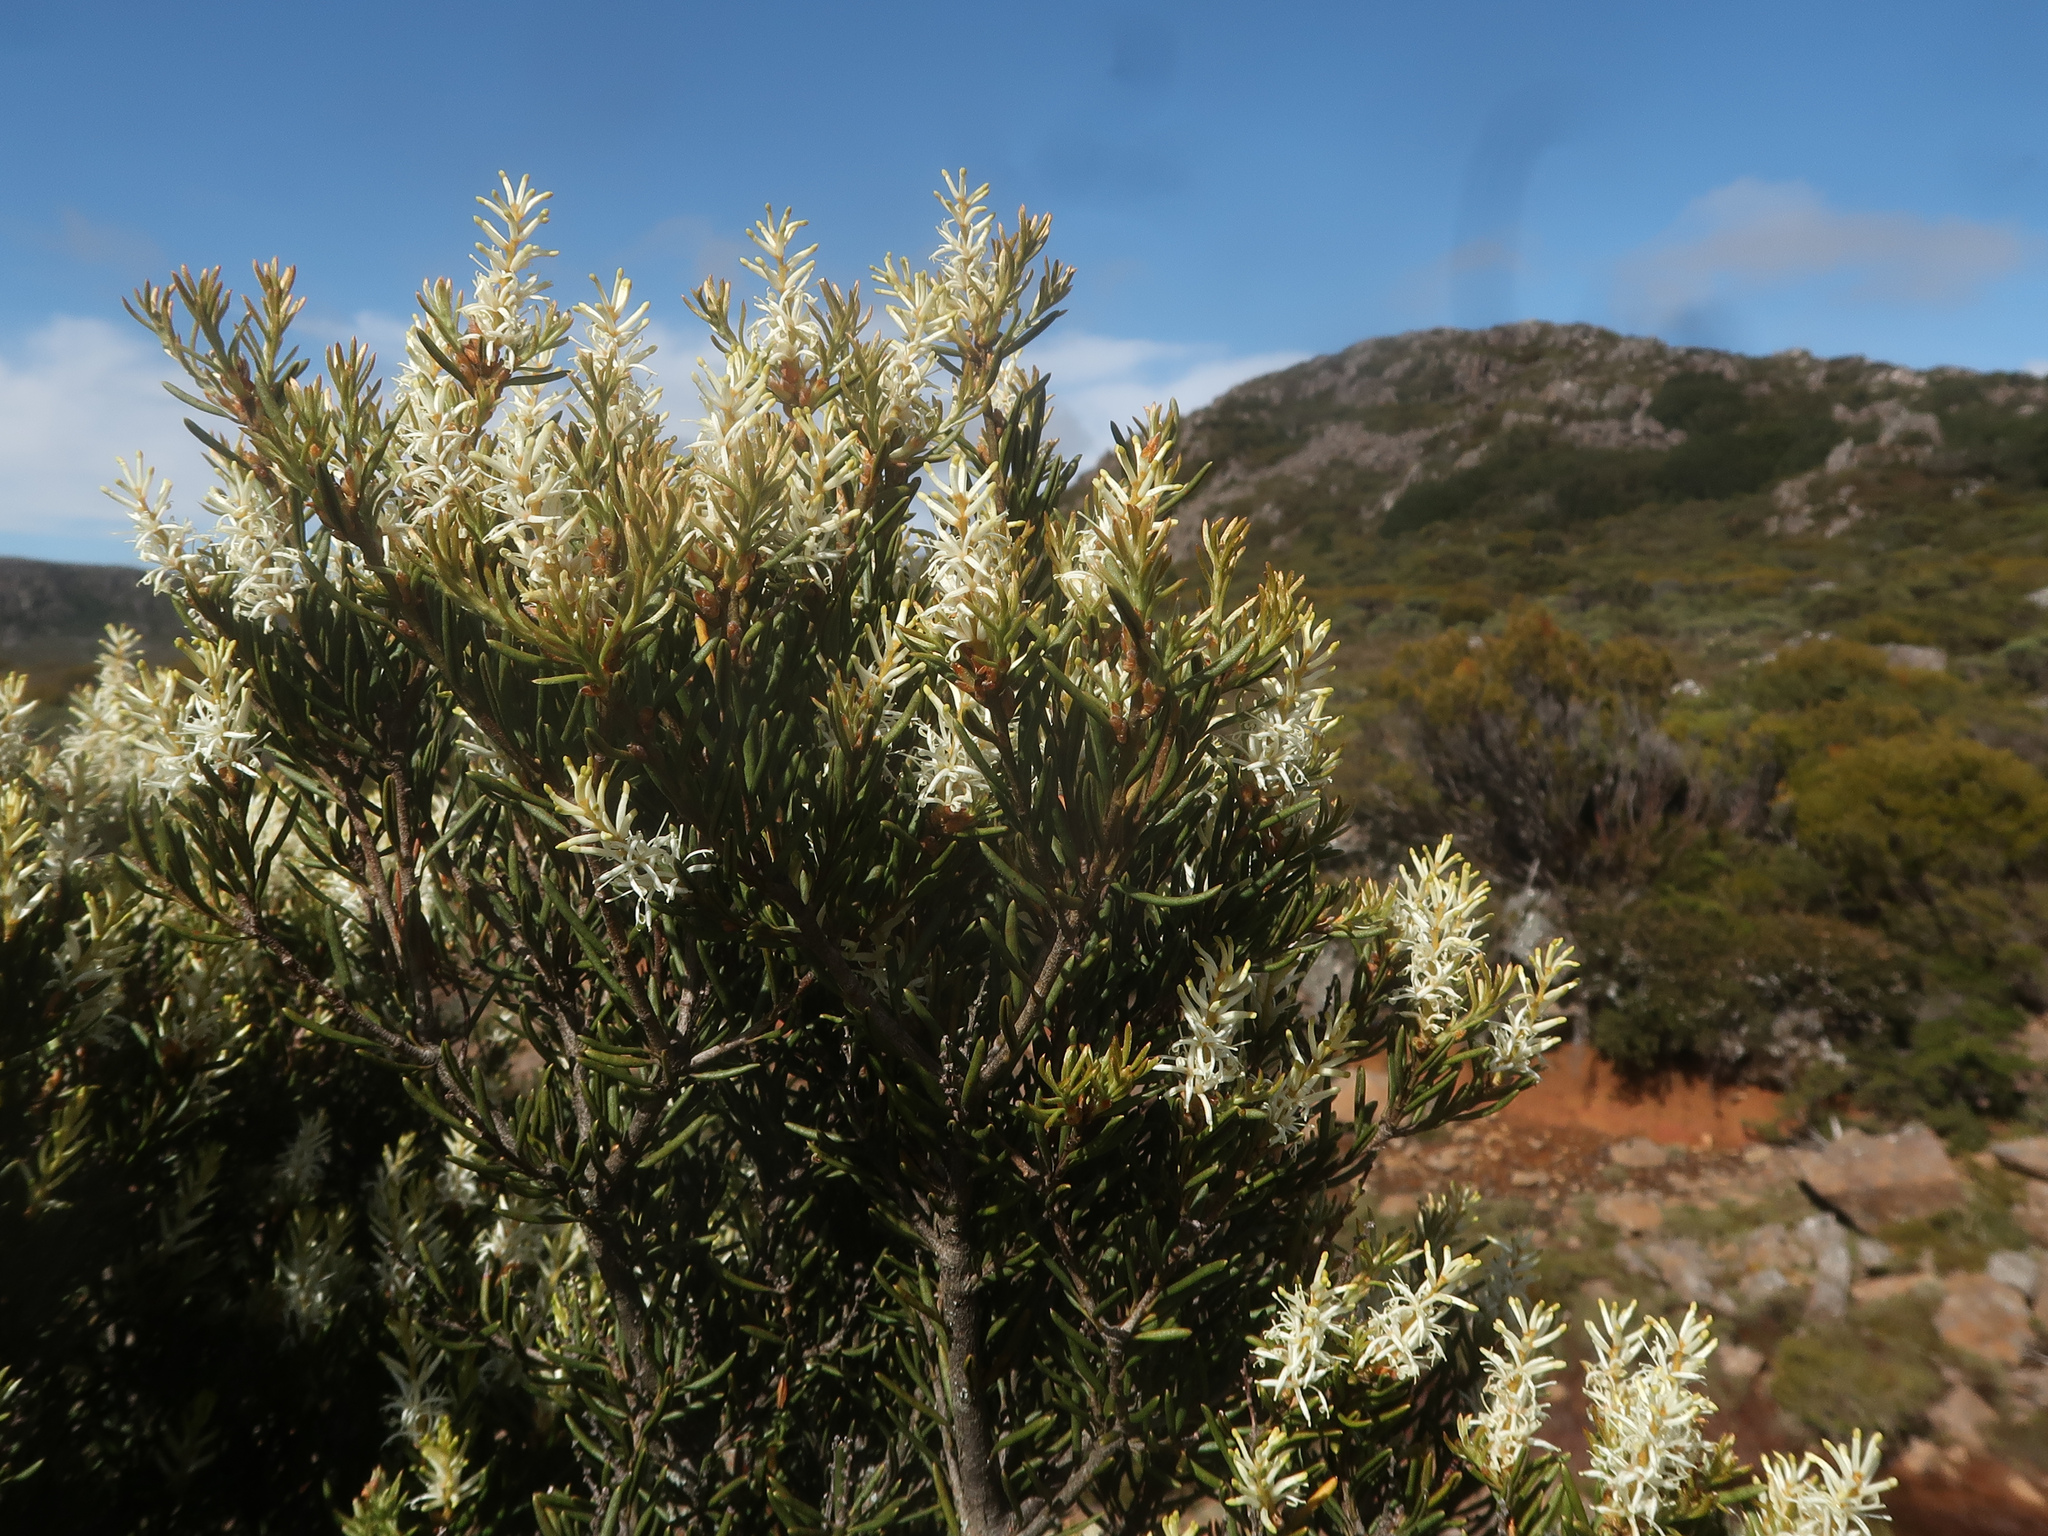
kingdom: Plantae
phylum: Tracheophyta
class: Magnoliopsida
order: Proteales
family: Proteaceae
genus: Orites
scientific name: Orites revolutus
